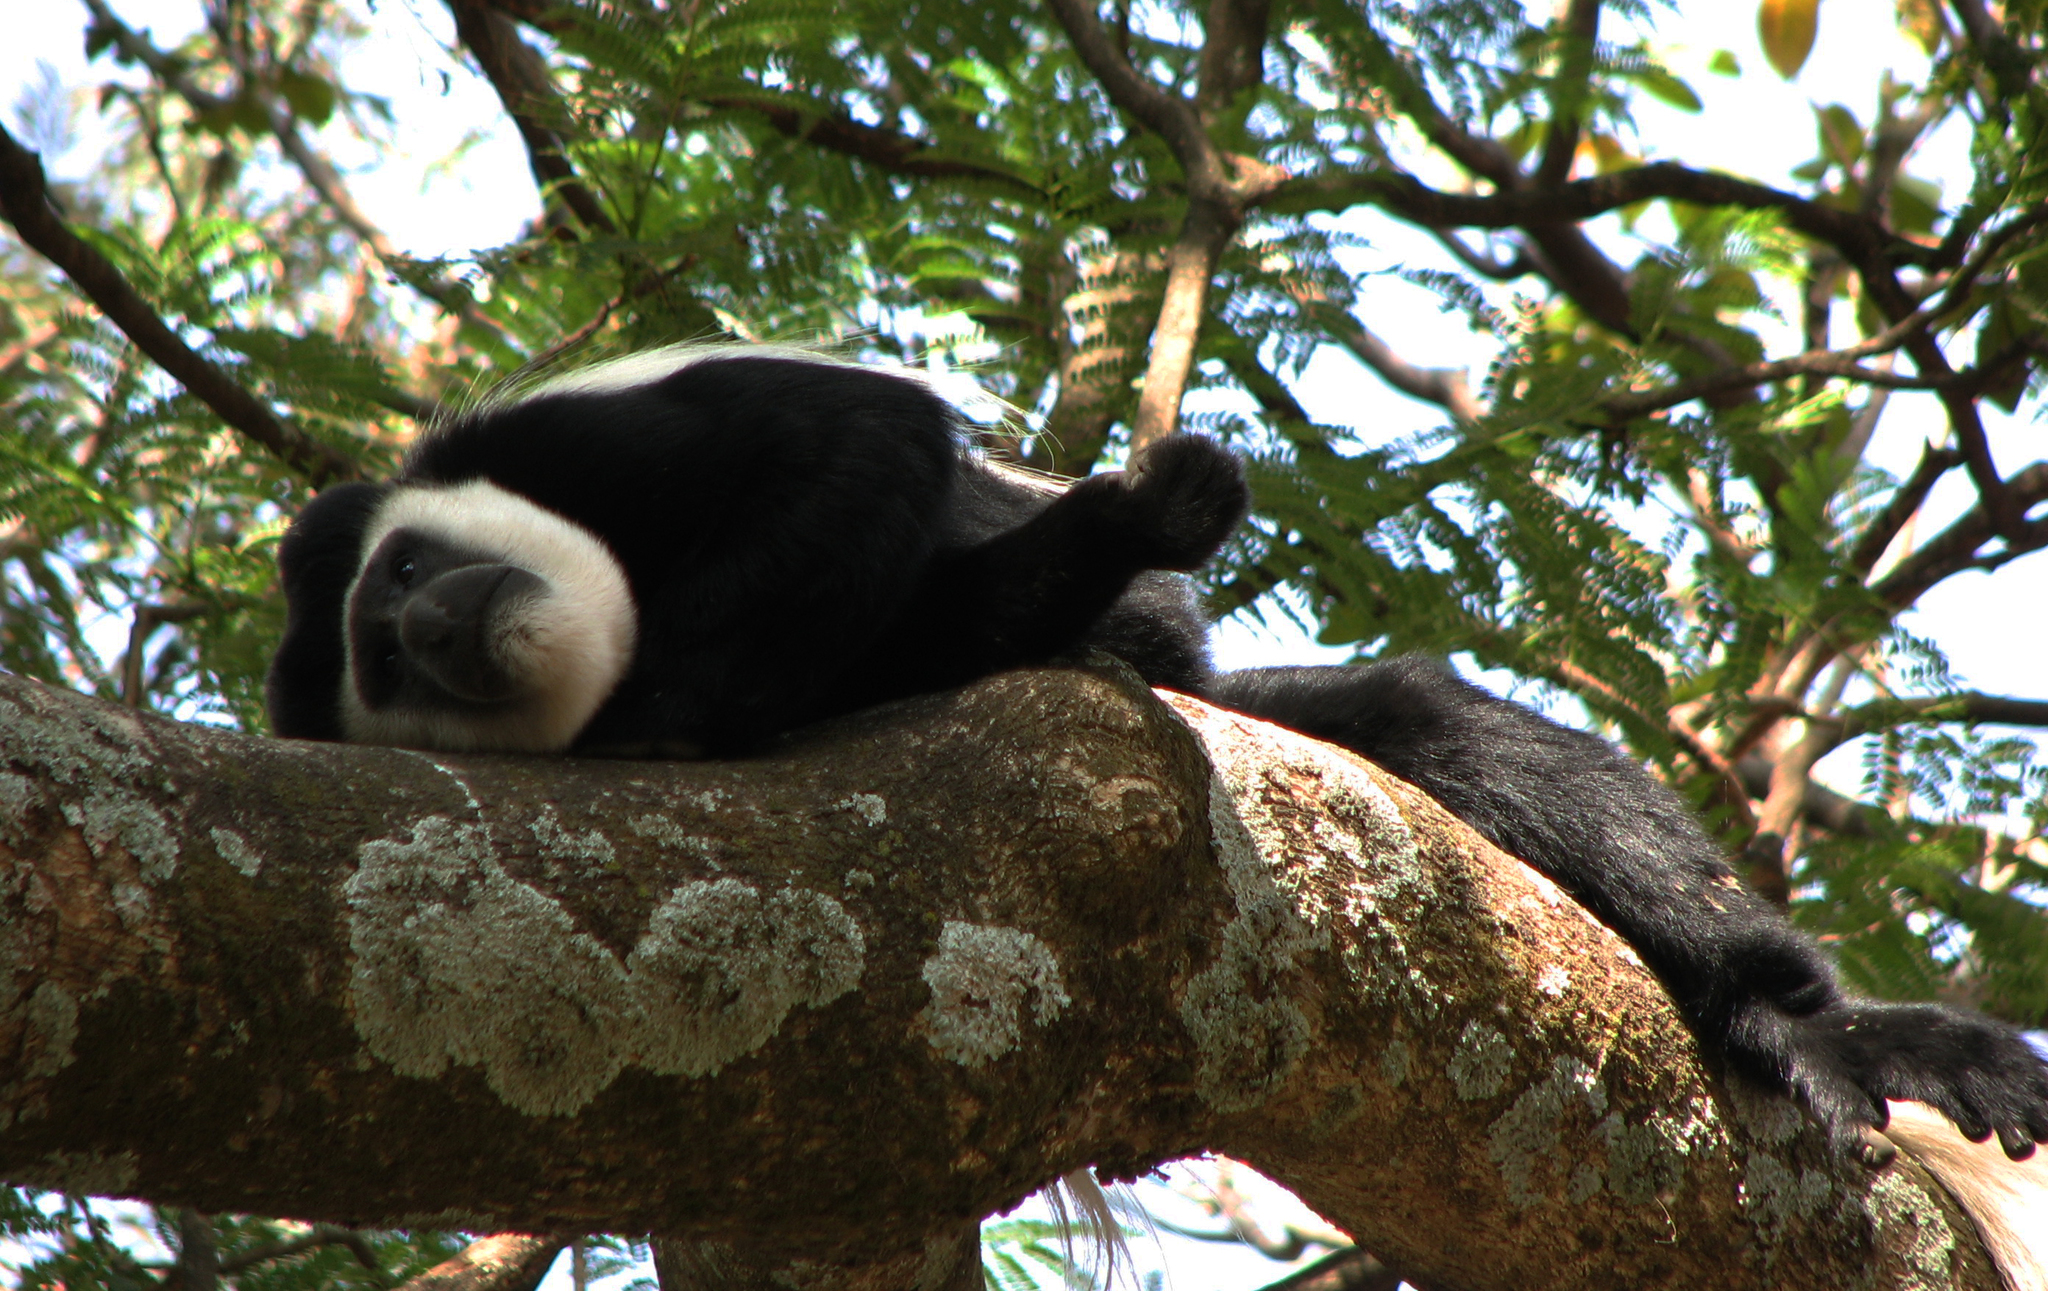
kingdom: Animalia
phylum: Chordata
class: Mammalia
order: Primates
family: Cercopithecidae
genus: Colobus
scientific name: Colobus guereza
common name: Mantled guereza
